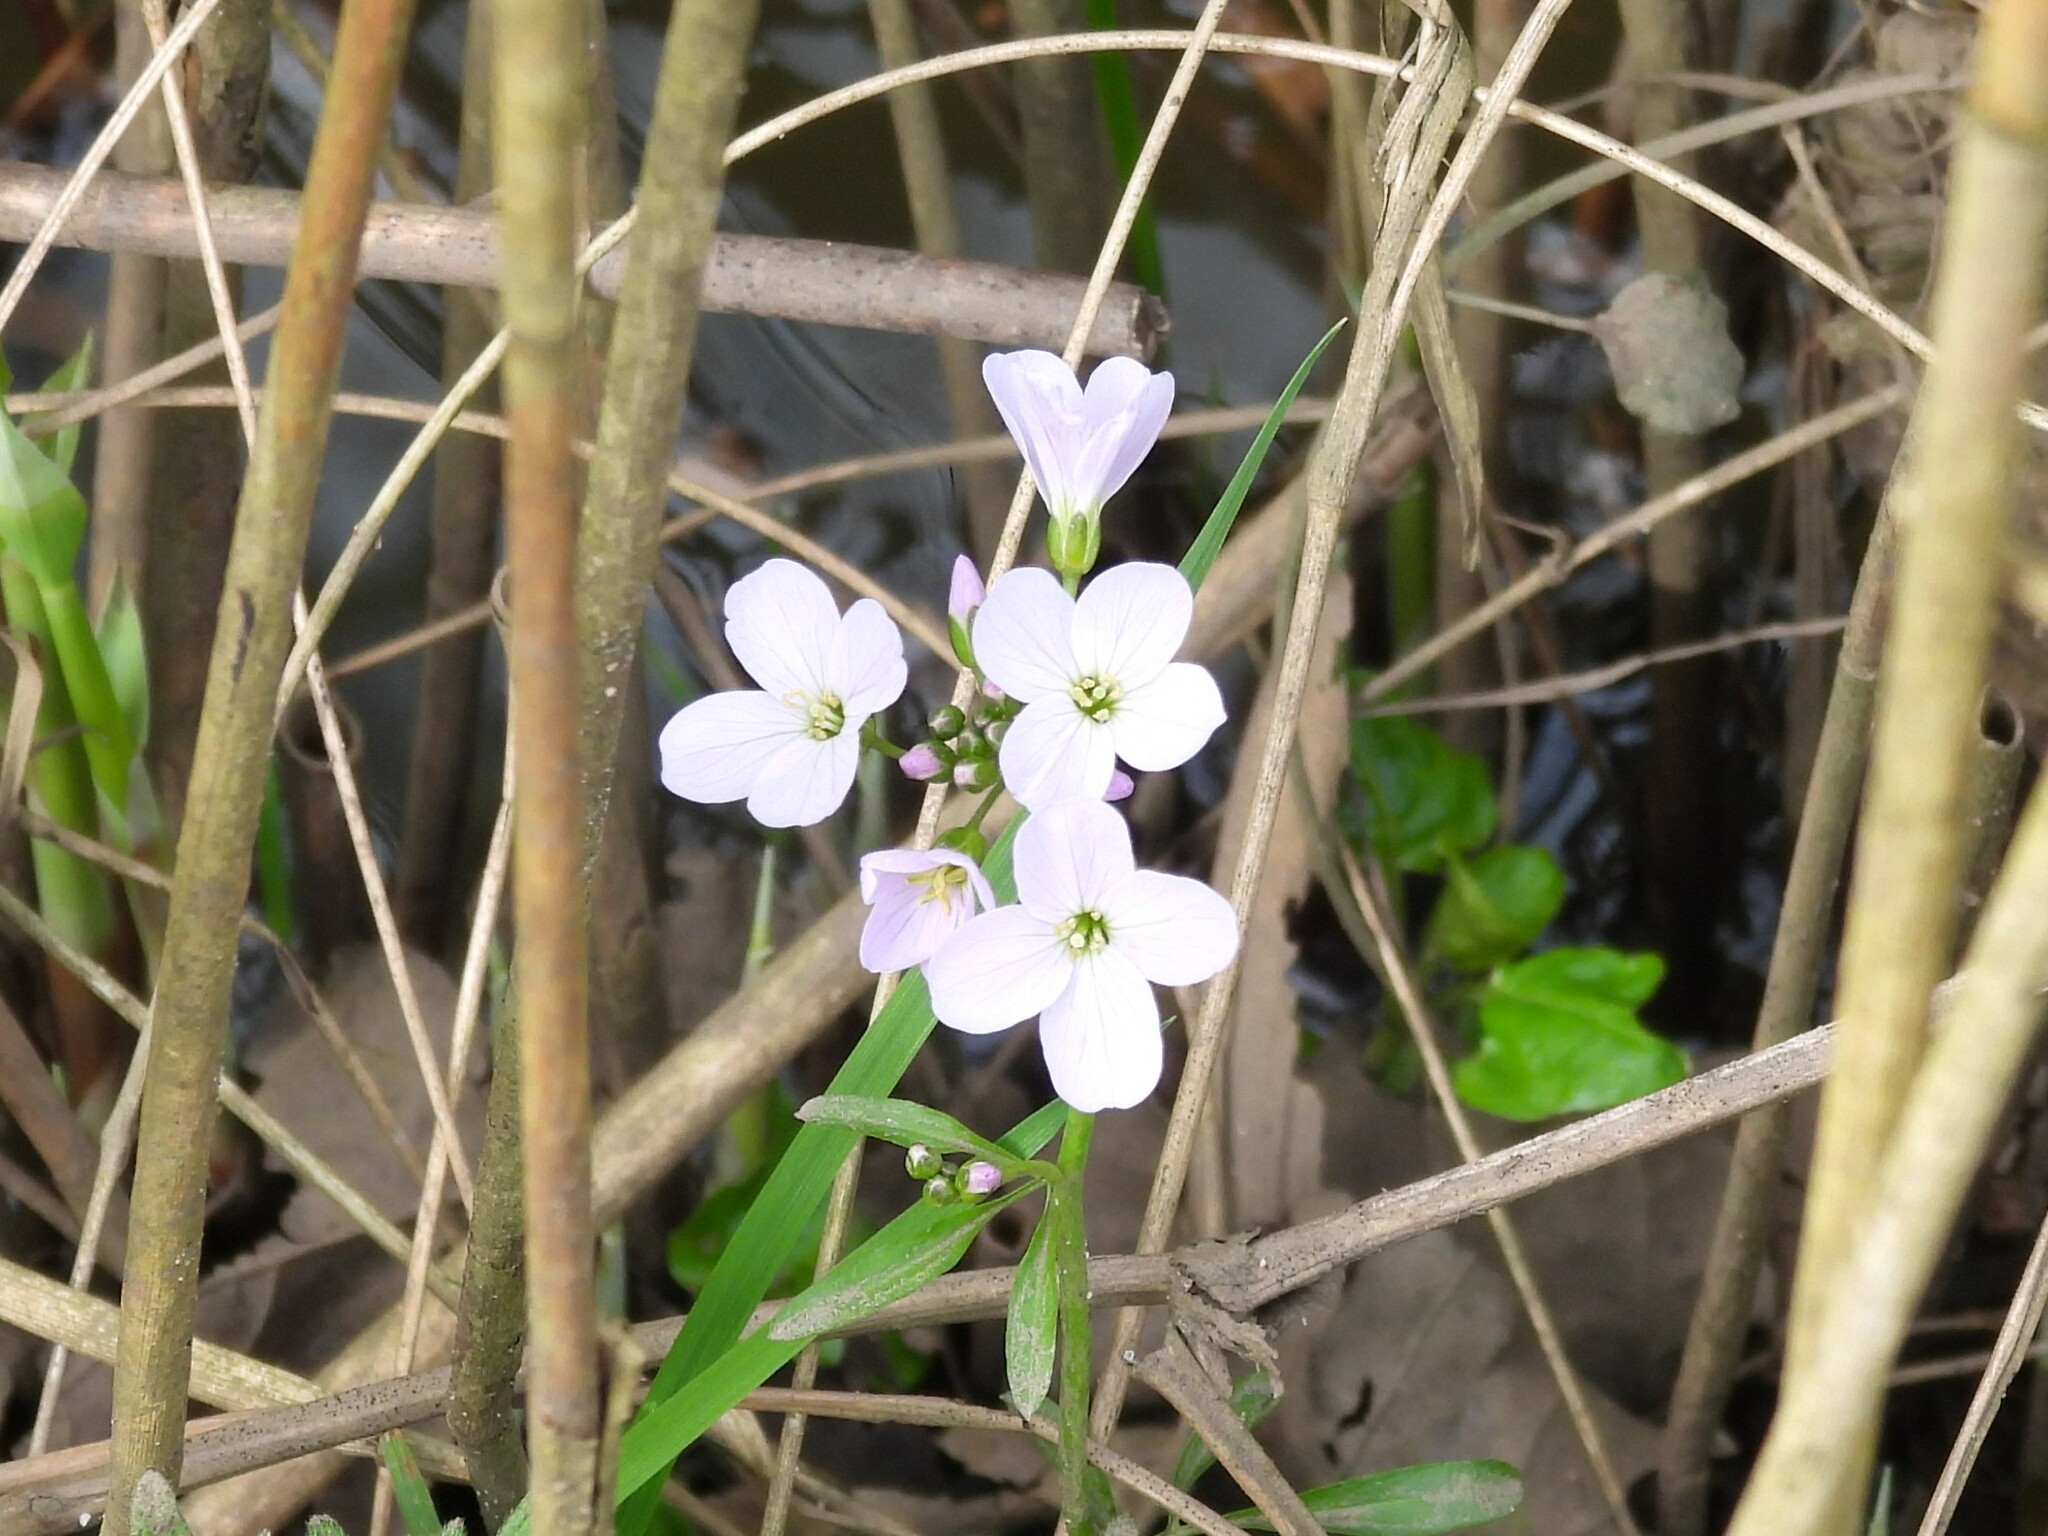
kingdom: Plantae
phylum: Tracheophyta
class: Magnoliopsida
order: Brassicales
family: Brassicaceae
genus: Cardamine
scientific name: Cardamine pratensis
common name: Cuckoo flower
